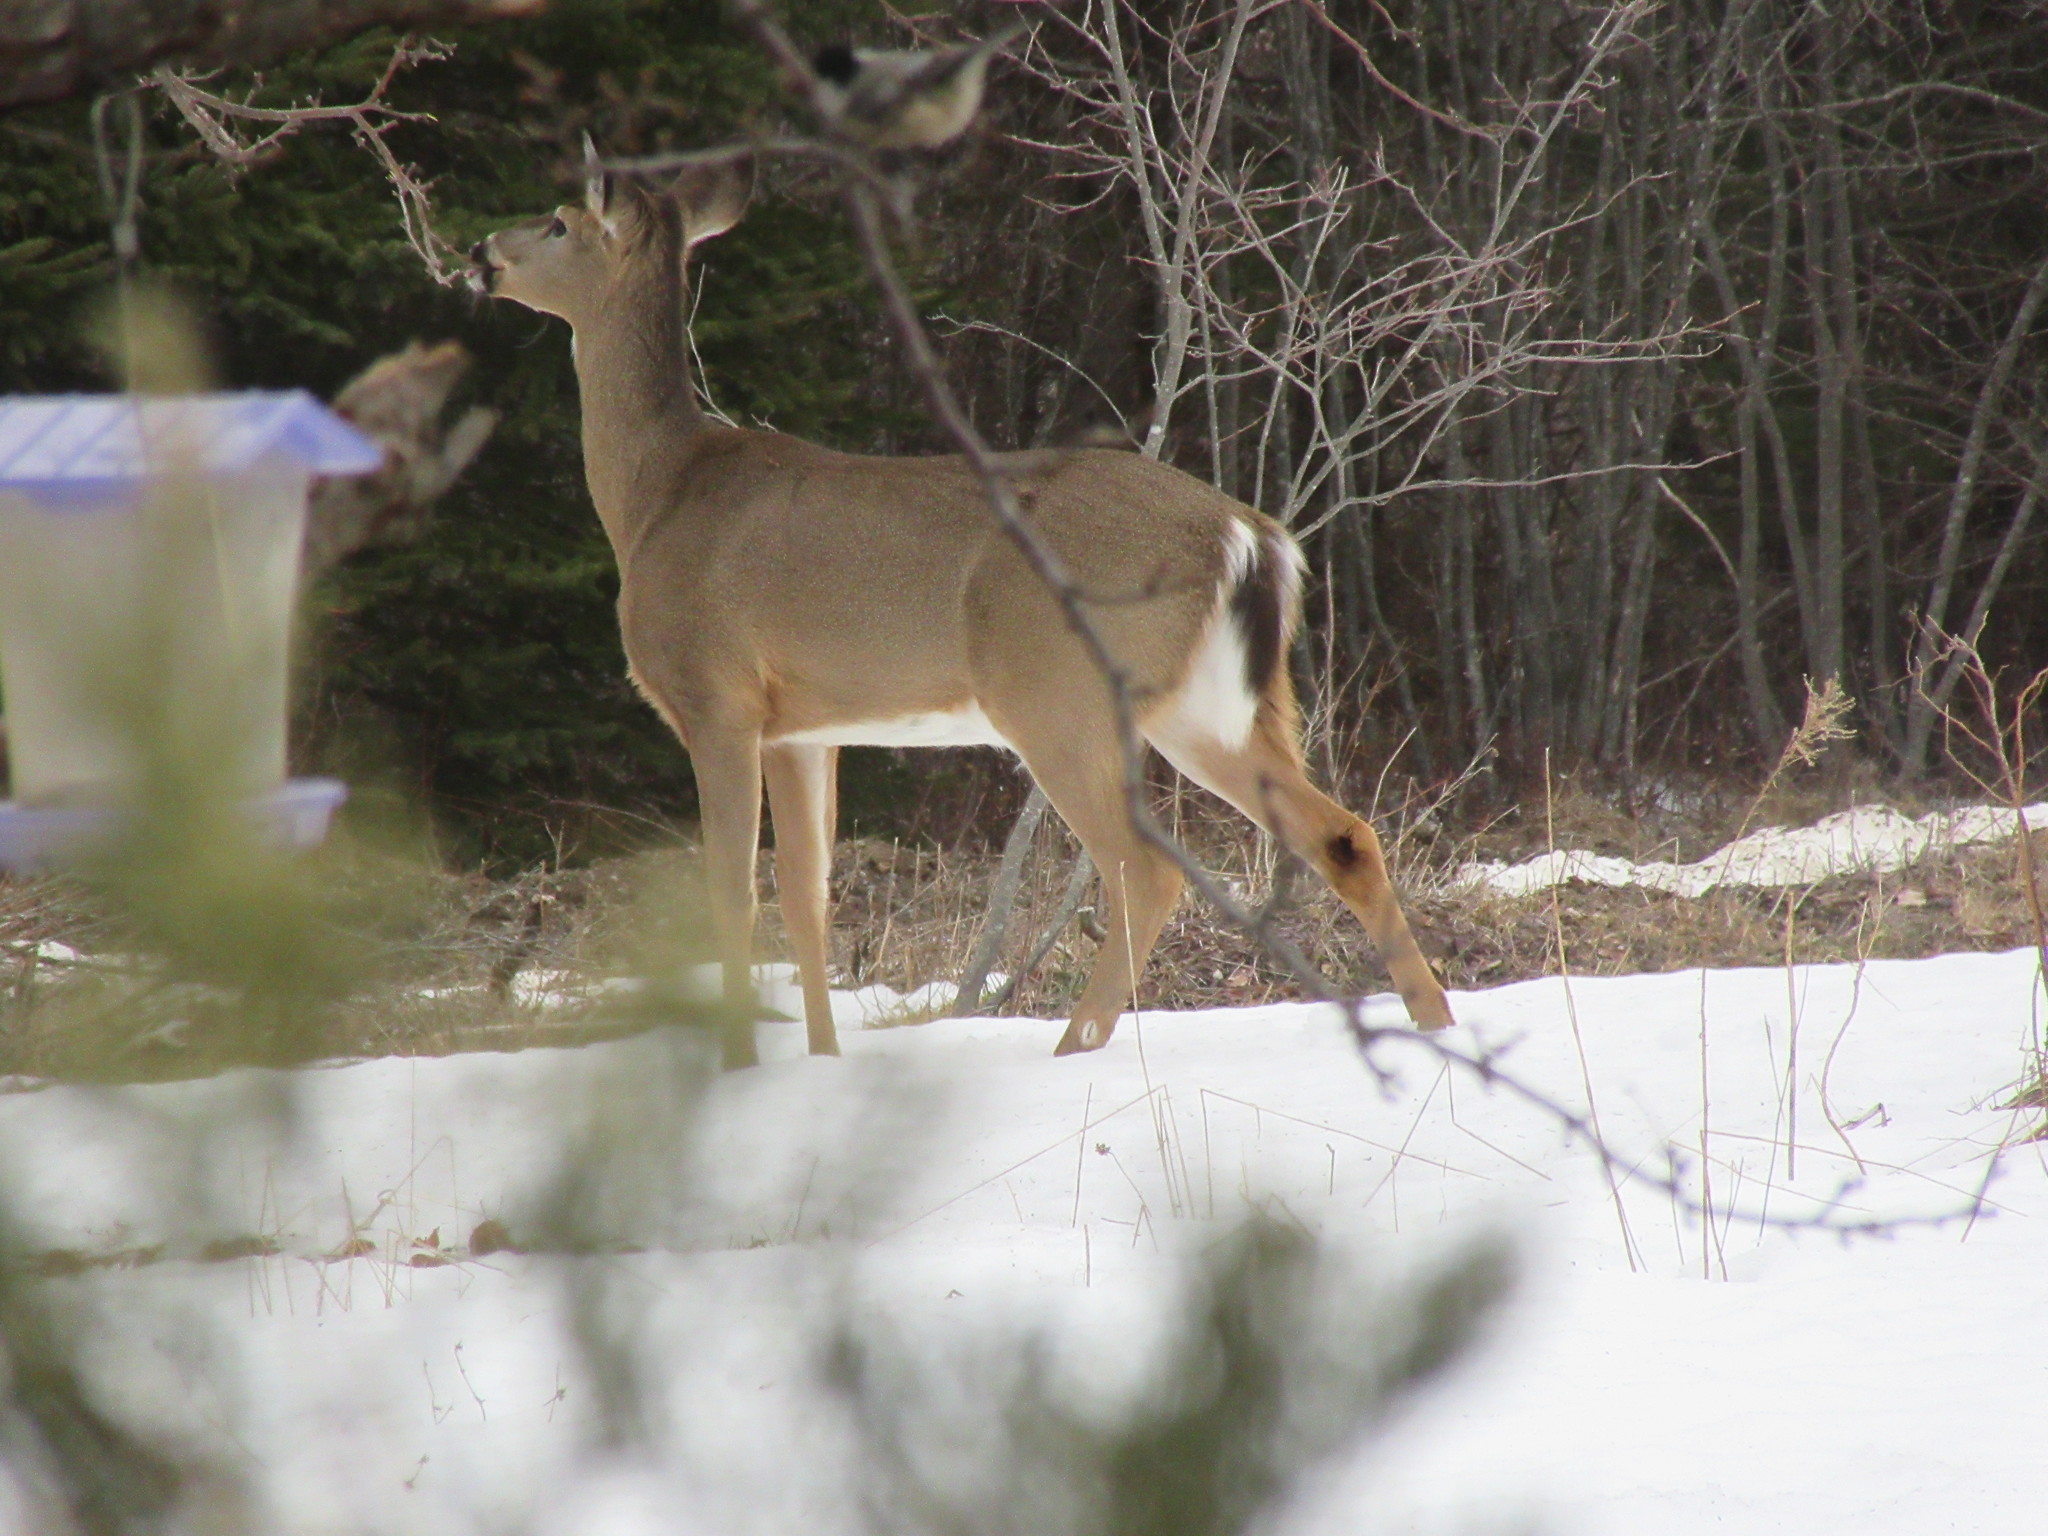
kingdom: Animalia
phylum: Chordata
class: Mammalia
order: Artiodactyla
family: Cervidae
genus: Odocoileus
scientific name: Odocoileus virginianus
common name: White-tailed deer
